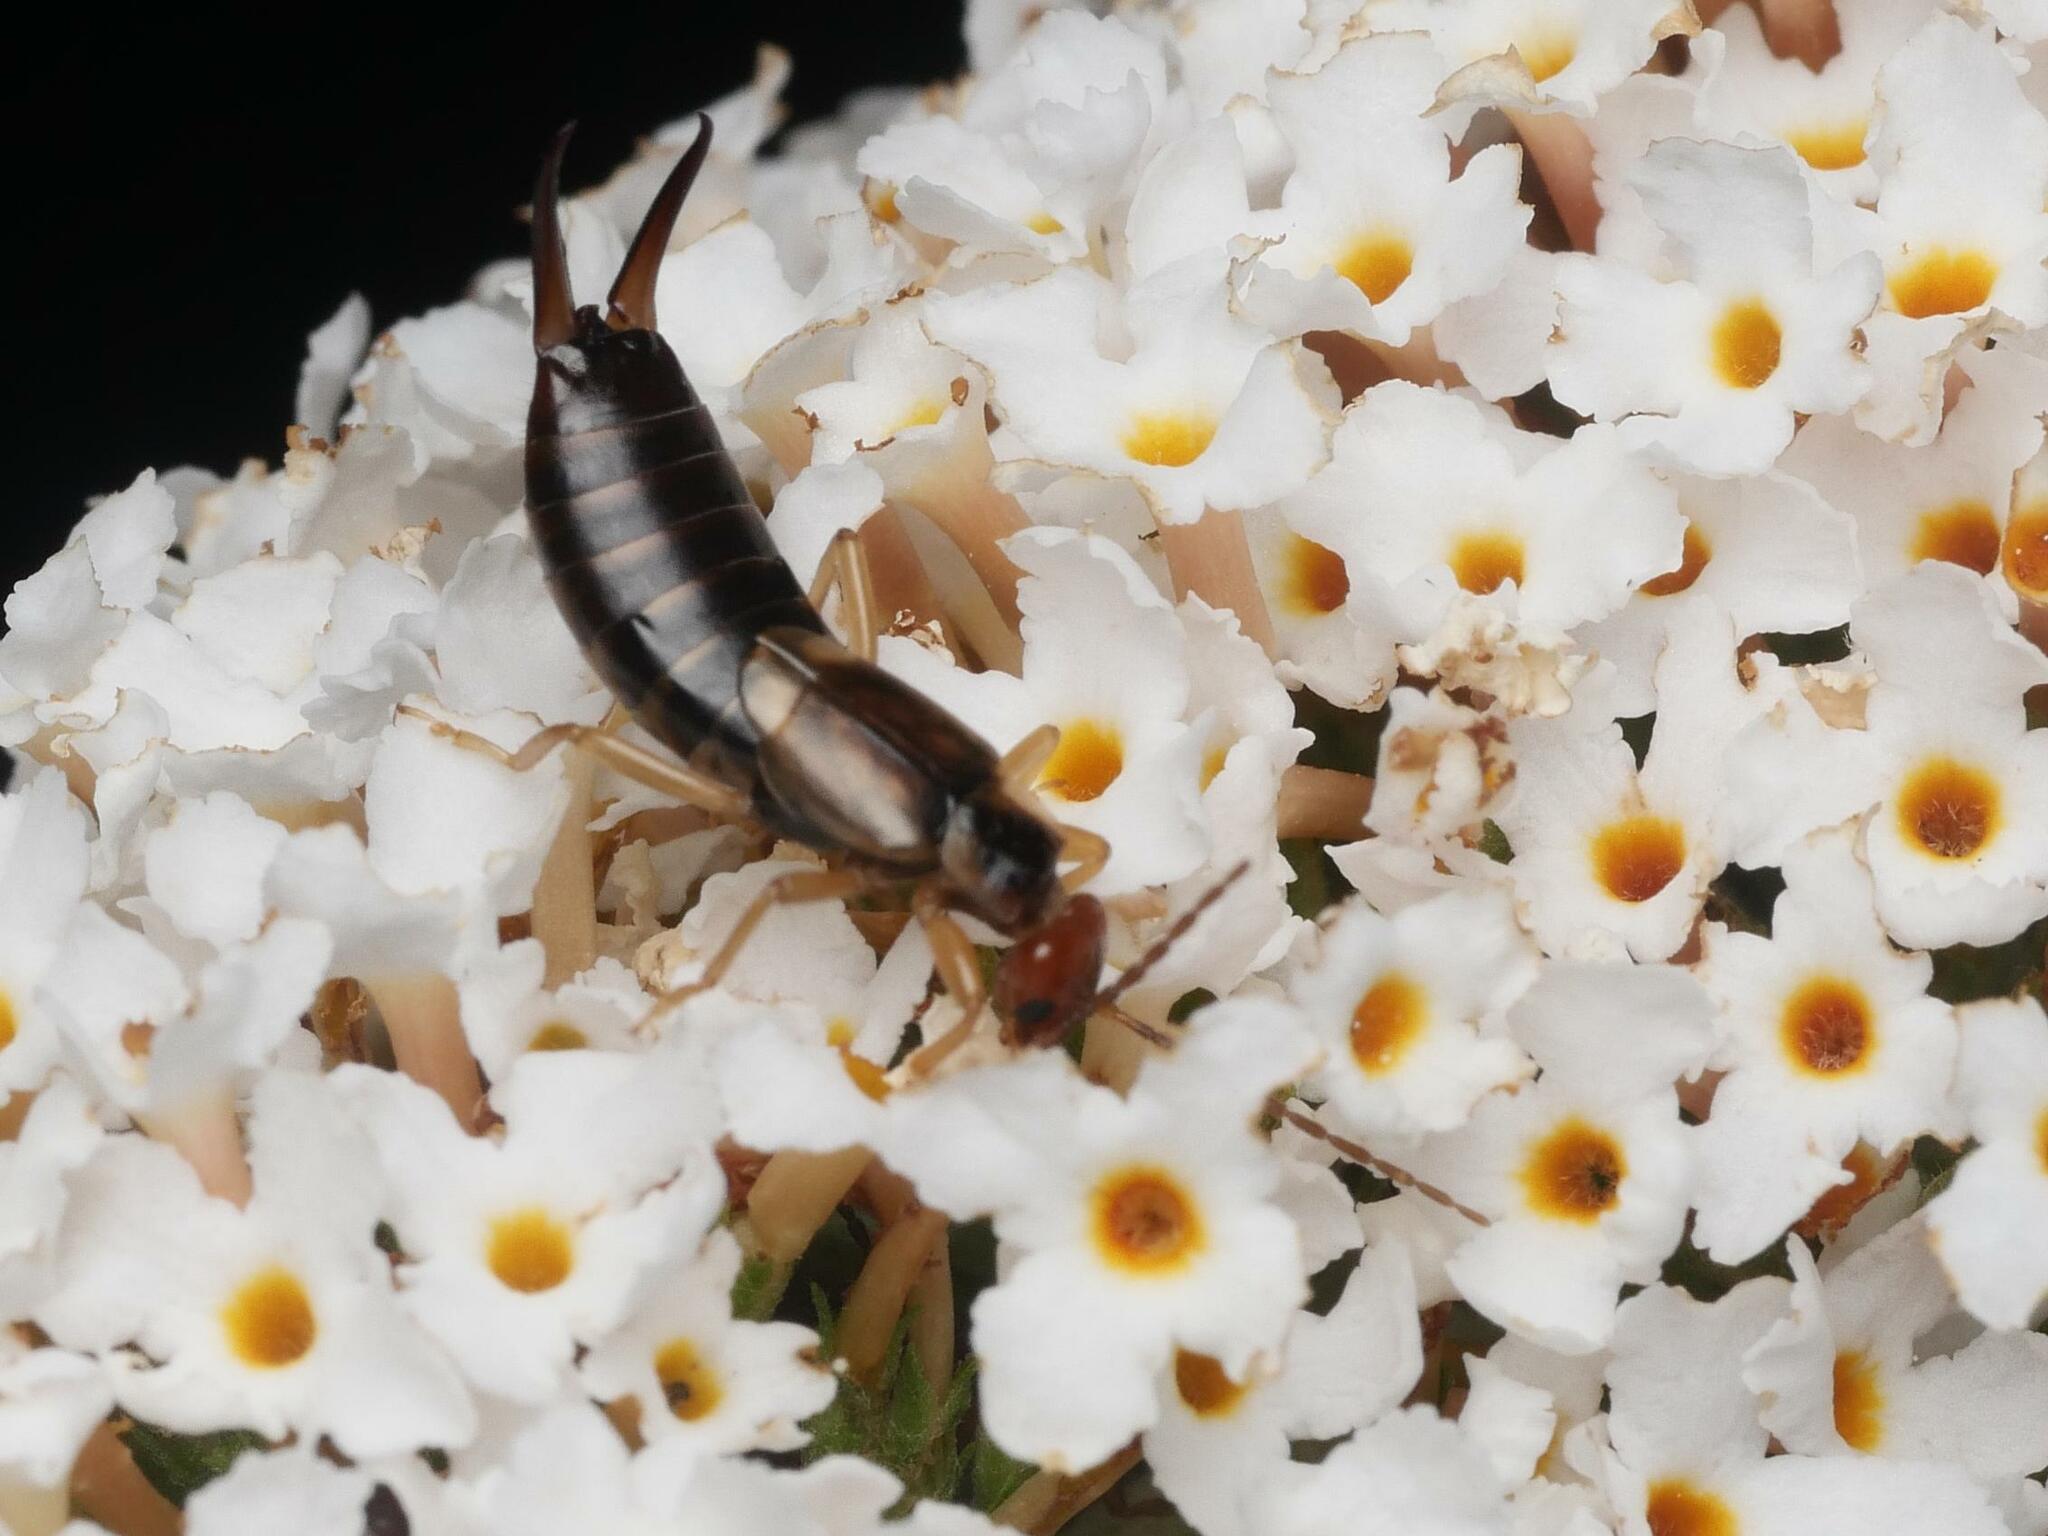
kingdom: Animalia
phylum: Arthropoda
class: Insecta
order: Dermaptera
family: Forficulidae
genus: Forficula
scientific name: Forficula
